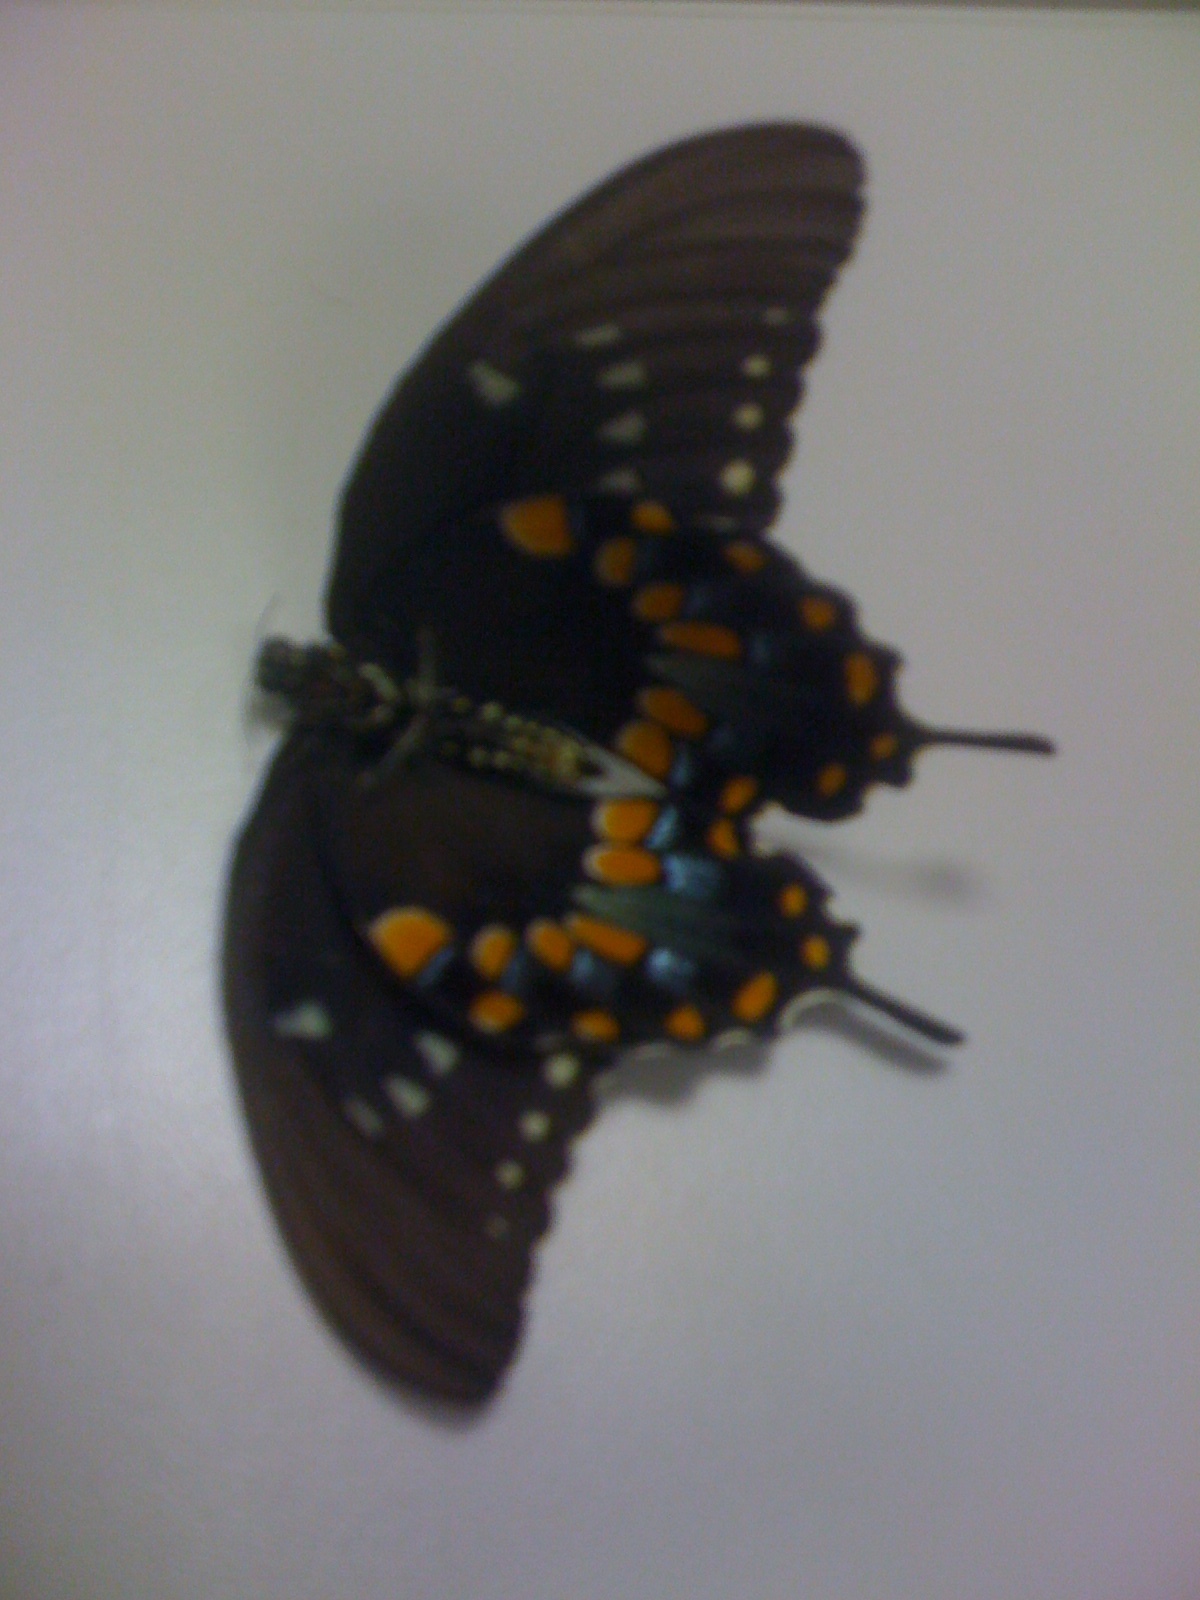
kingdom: Animalia
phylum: Arthropoda
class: Insecta
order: Lepidoptera
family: Papilionidae
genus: Papilio
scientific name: Papilio troilus
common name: Spicebush swallowtail
